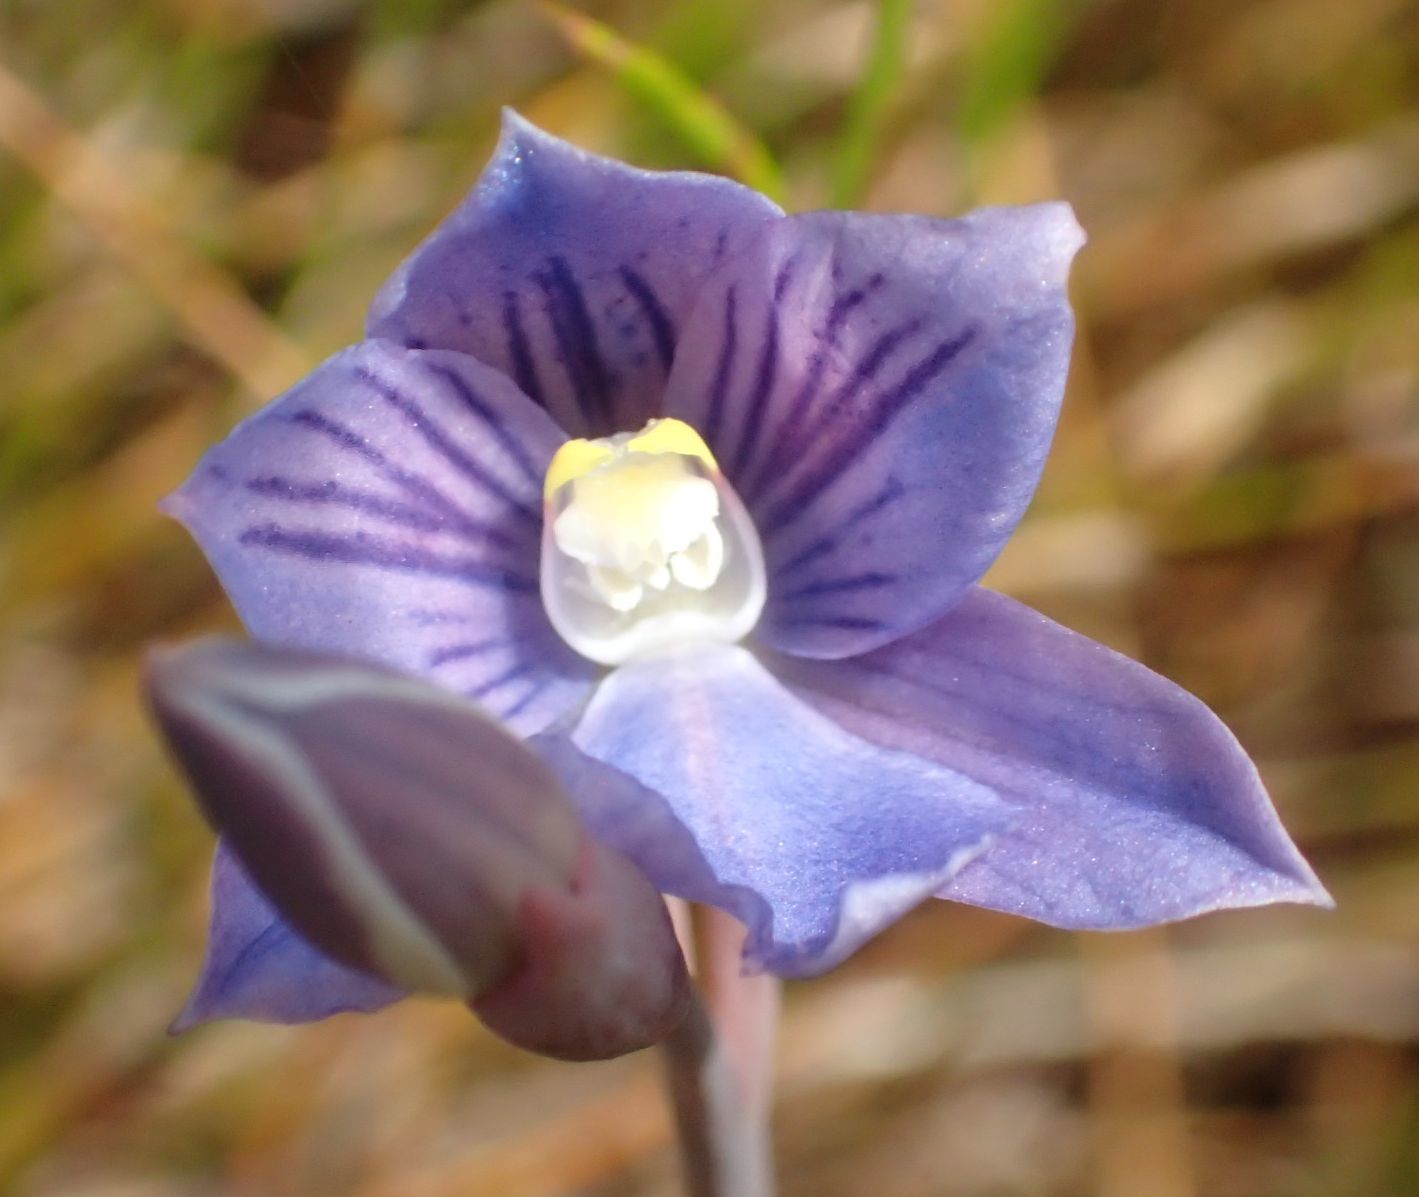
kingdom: Plantae
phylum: Tracheophyta
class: Liliopsida
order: Asparagales
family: Orchidaceae
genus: Thelymitra
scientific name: Thelymitra cyanea
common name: Blue sun-orchid
